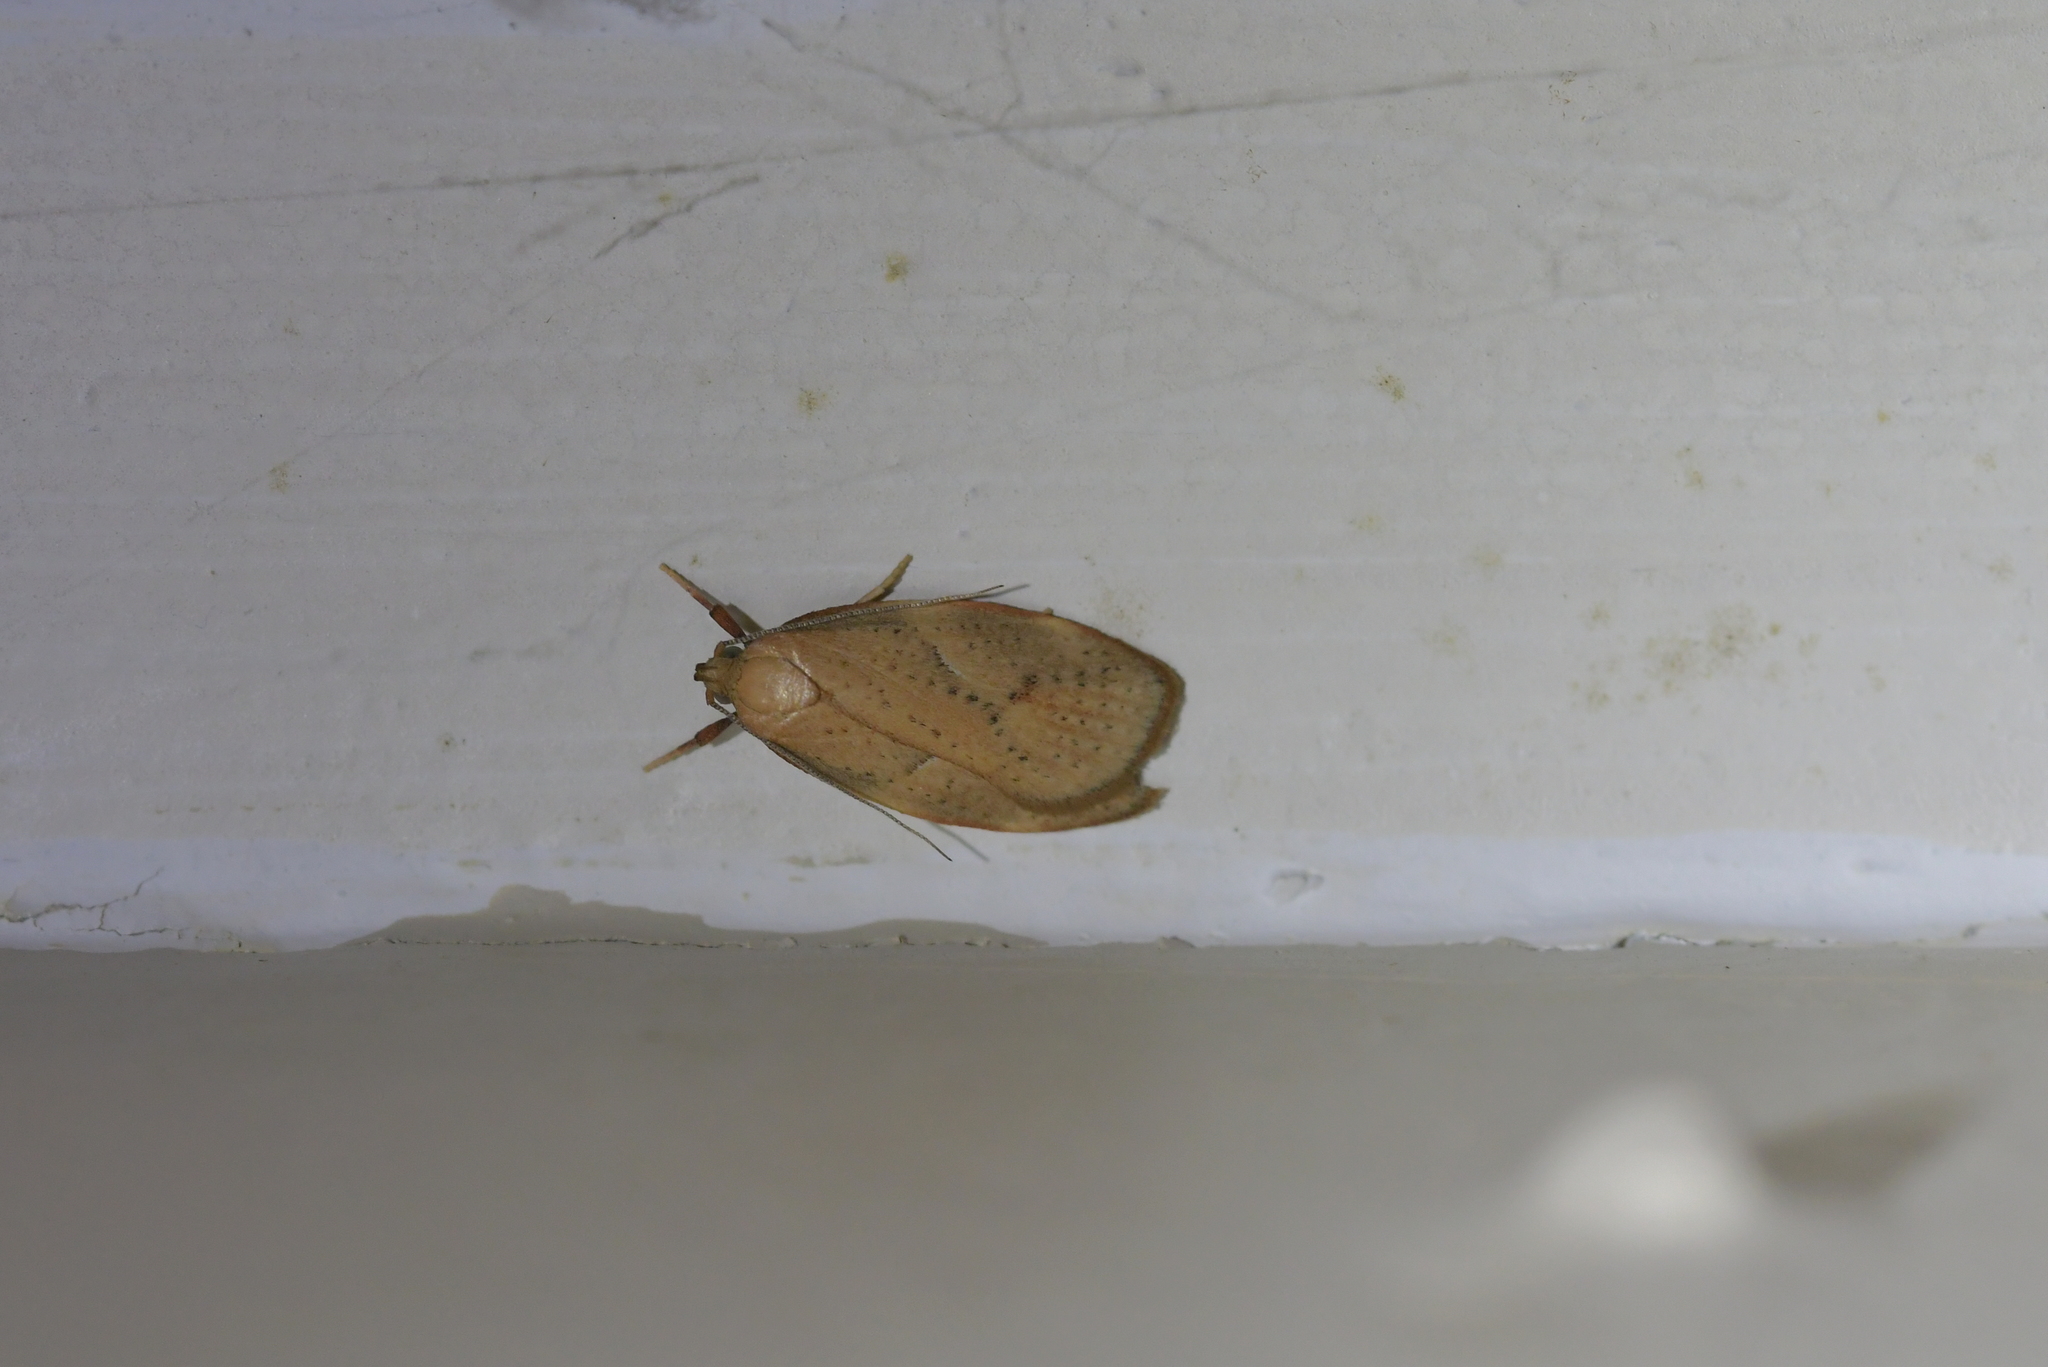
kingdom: Animalia
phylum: Arthropoda
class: Insecta
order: Lepidoptera
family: Oecophoridae
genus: Proteodes
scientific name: Proteodes carnifex
